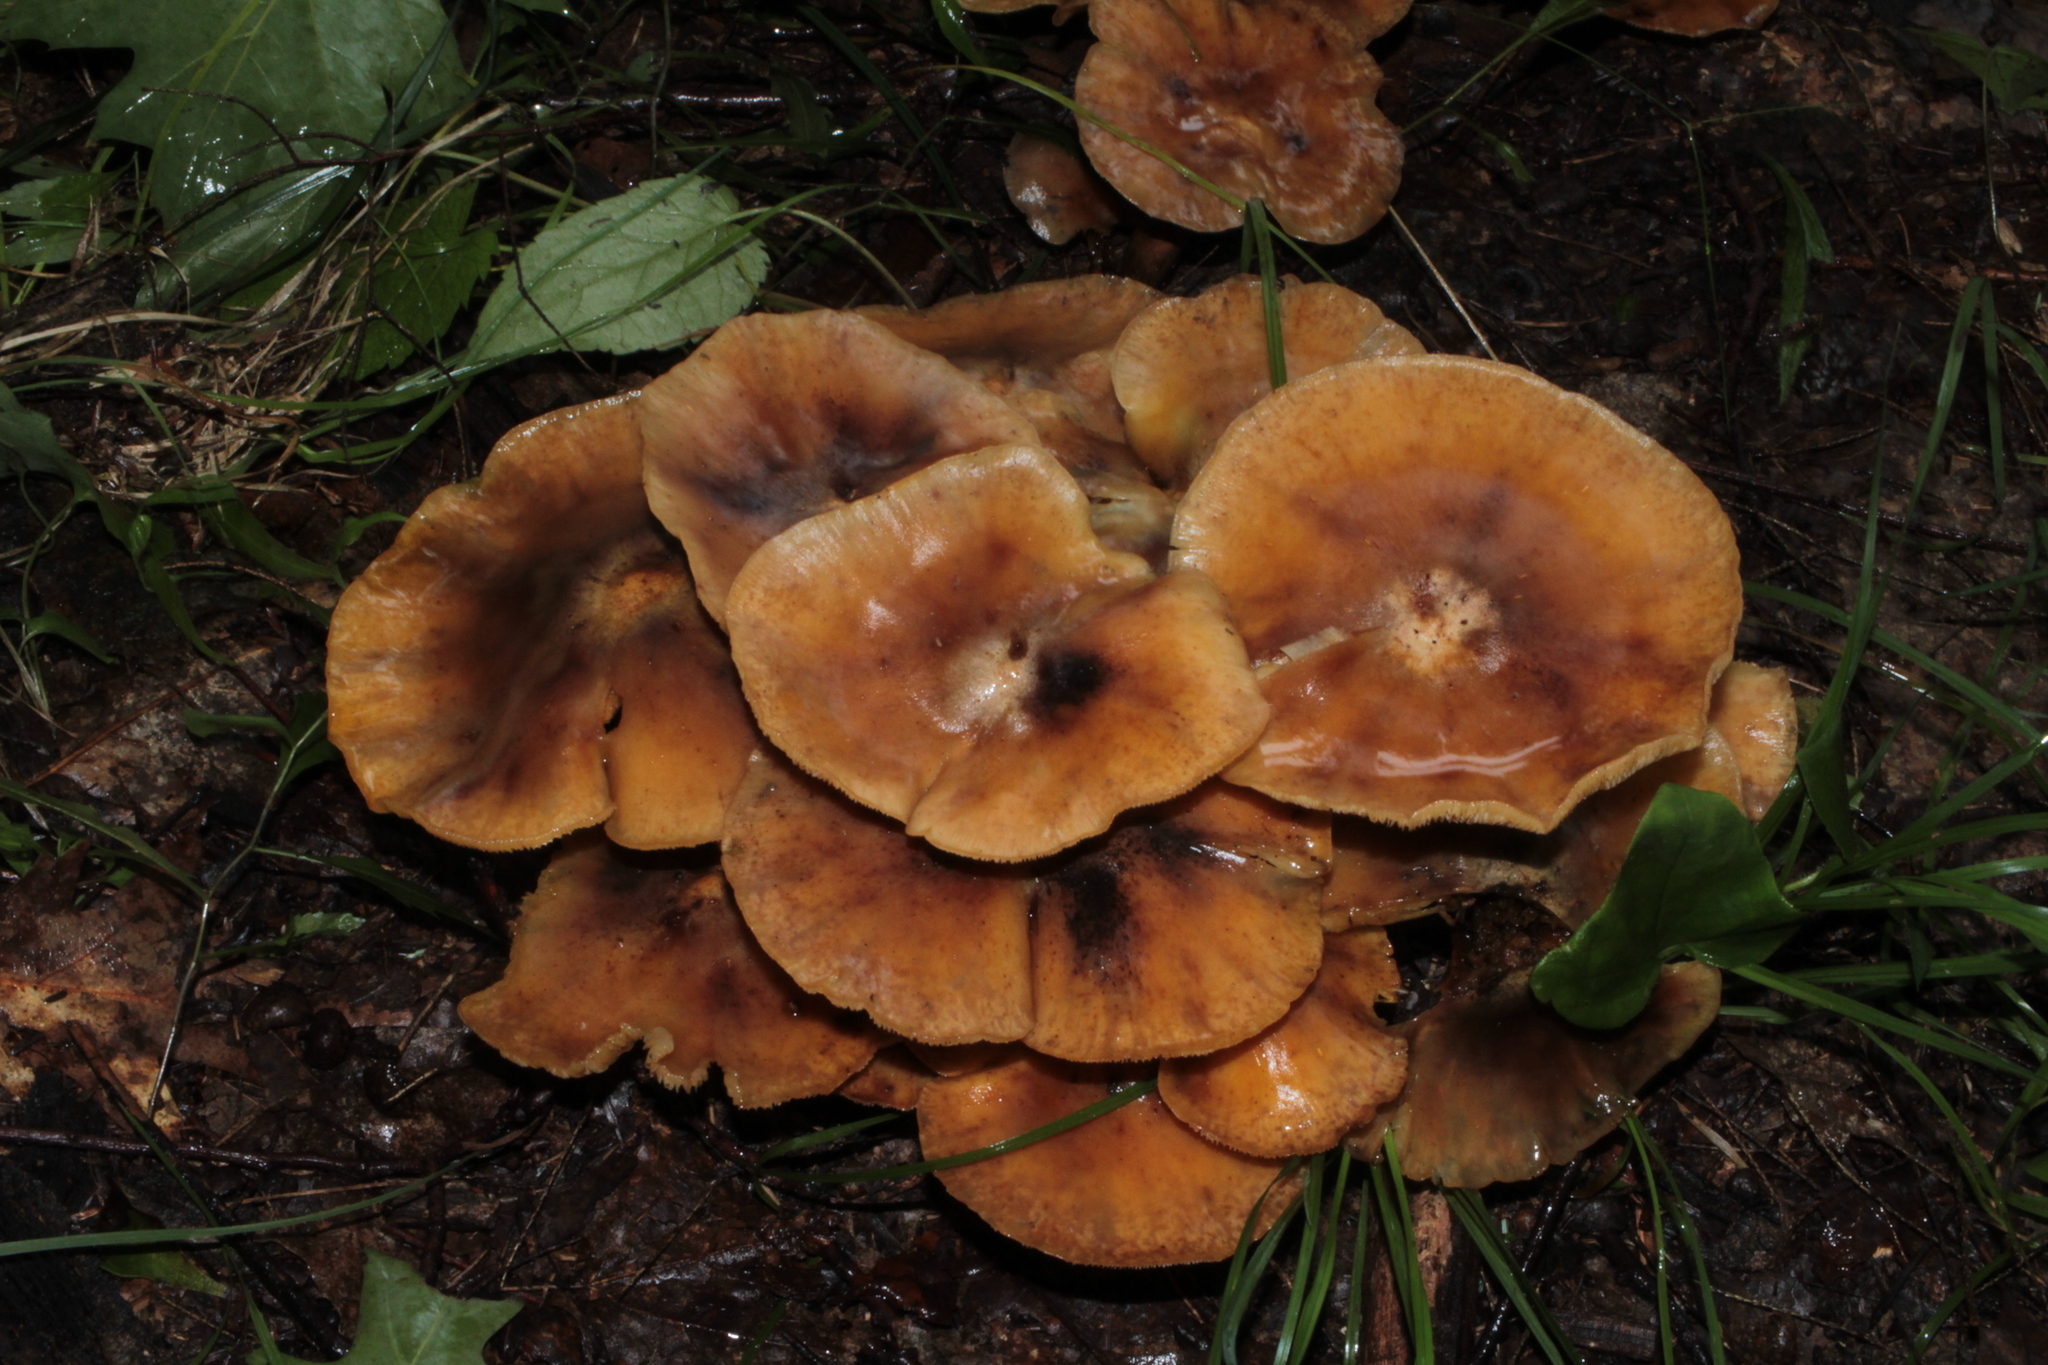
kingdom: Fungi
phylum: Basidiomycota
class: Agaricomycetes
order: Agaricales
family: Omphalotaceae
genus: Omphalotus
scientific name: Omphalotus illudens
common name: Jack o lantern
